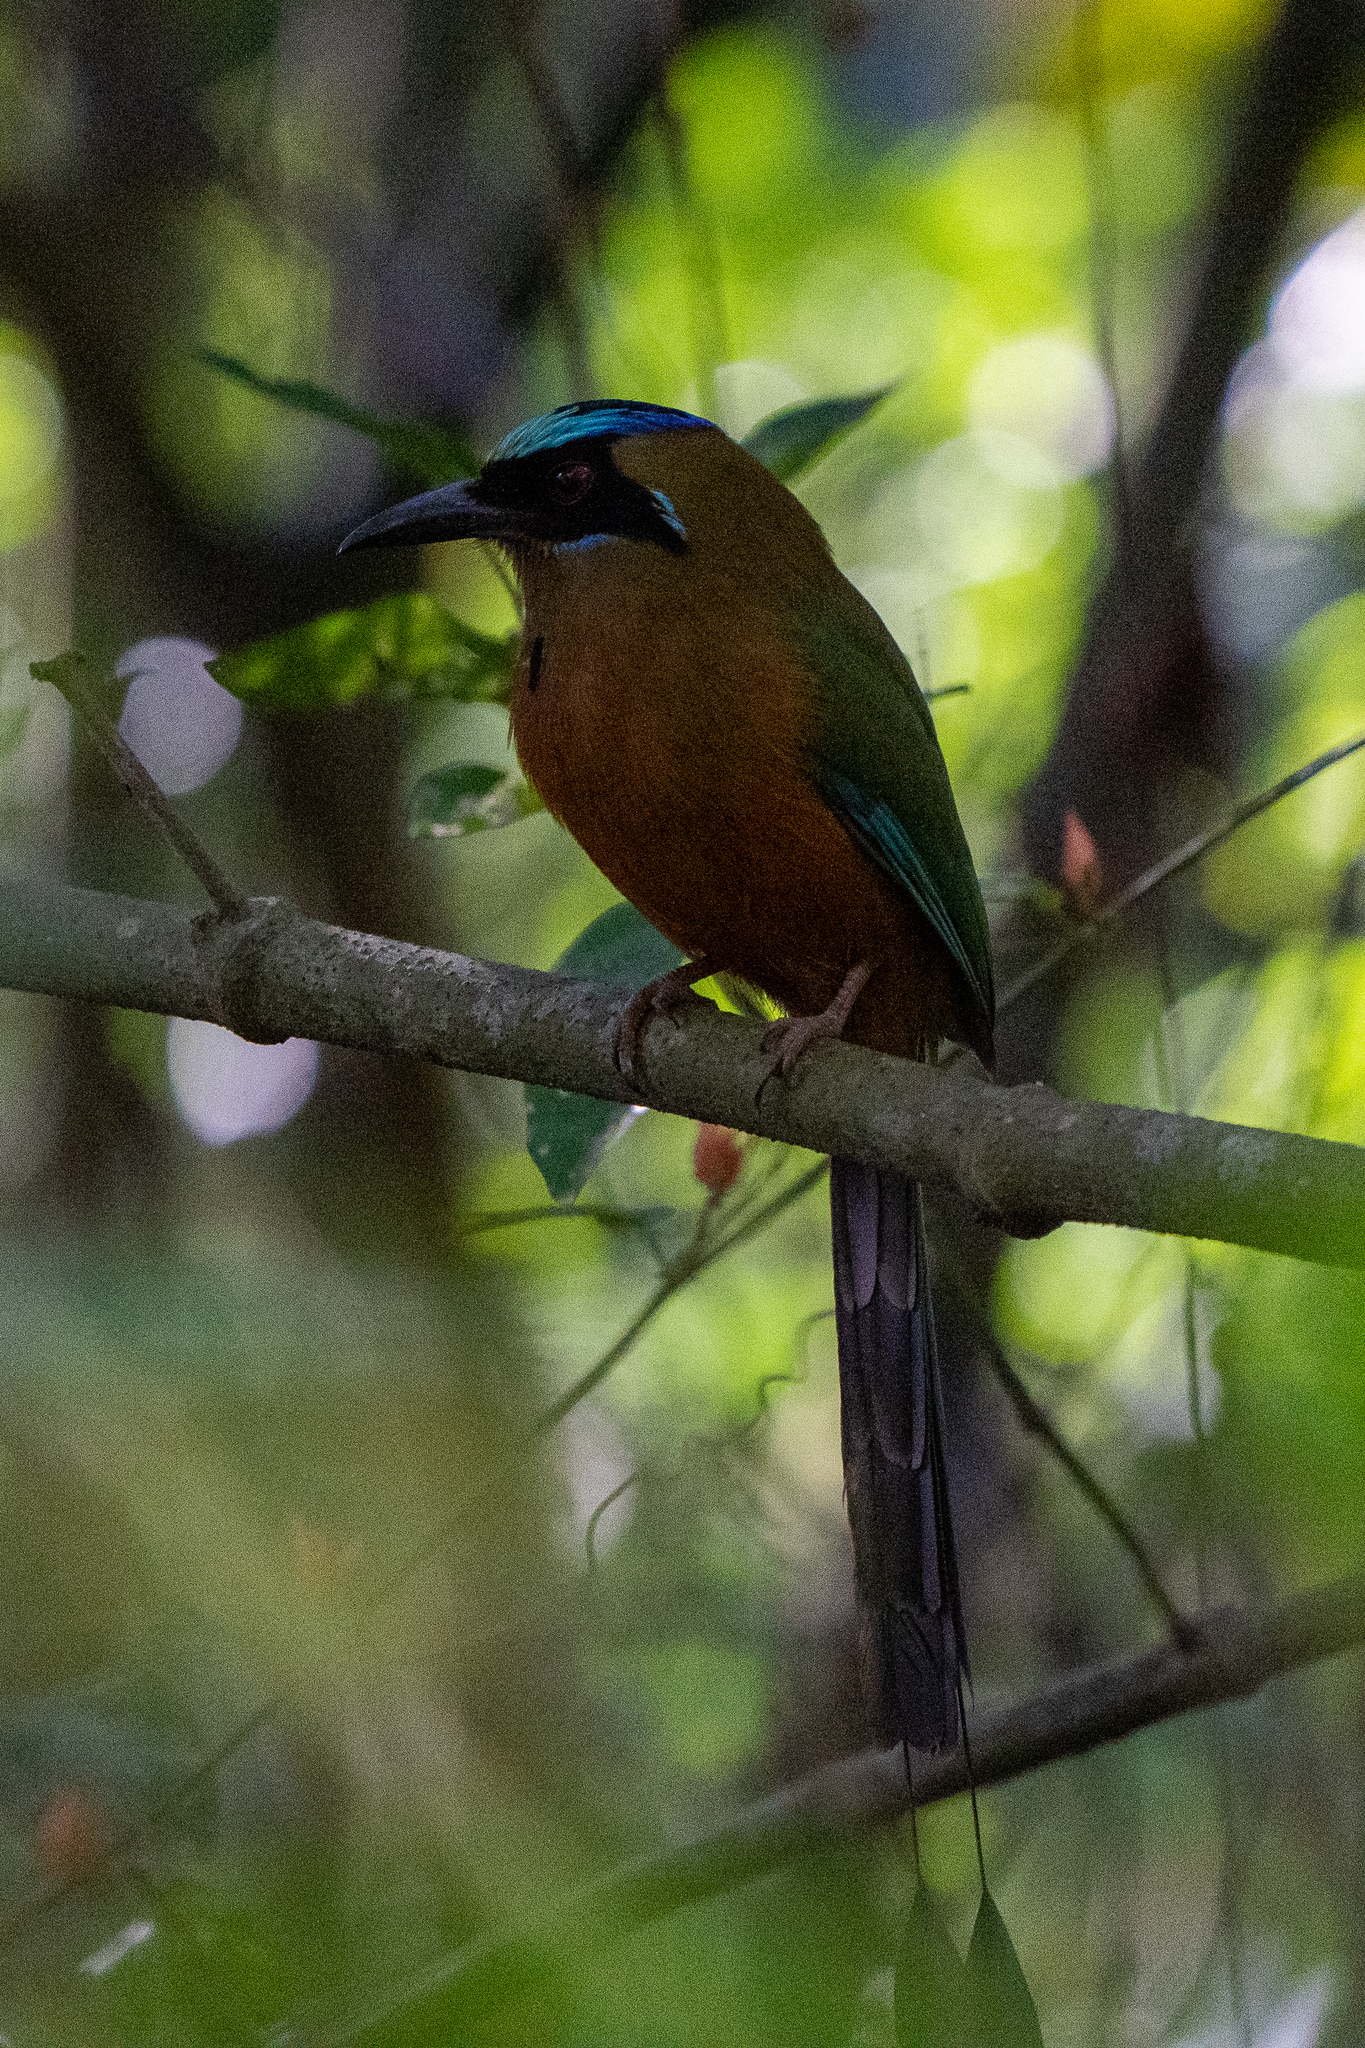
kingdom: Animalia
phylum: Chordata
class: Aves
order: Coraciiformes
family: Momotidae
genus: Momotus
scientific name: Momotus subrufescens
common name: Whooping motmot
